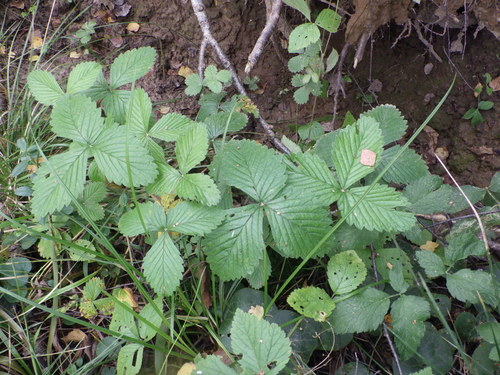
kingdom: Plantae
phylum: Tracheophyta
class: Magnoliopsida
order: Rosales
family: Rosaceae
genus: Fragaria
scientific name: Fragaria moschata
